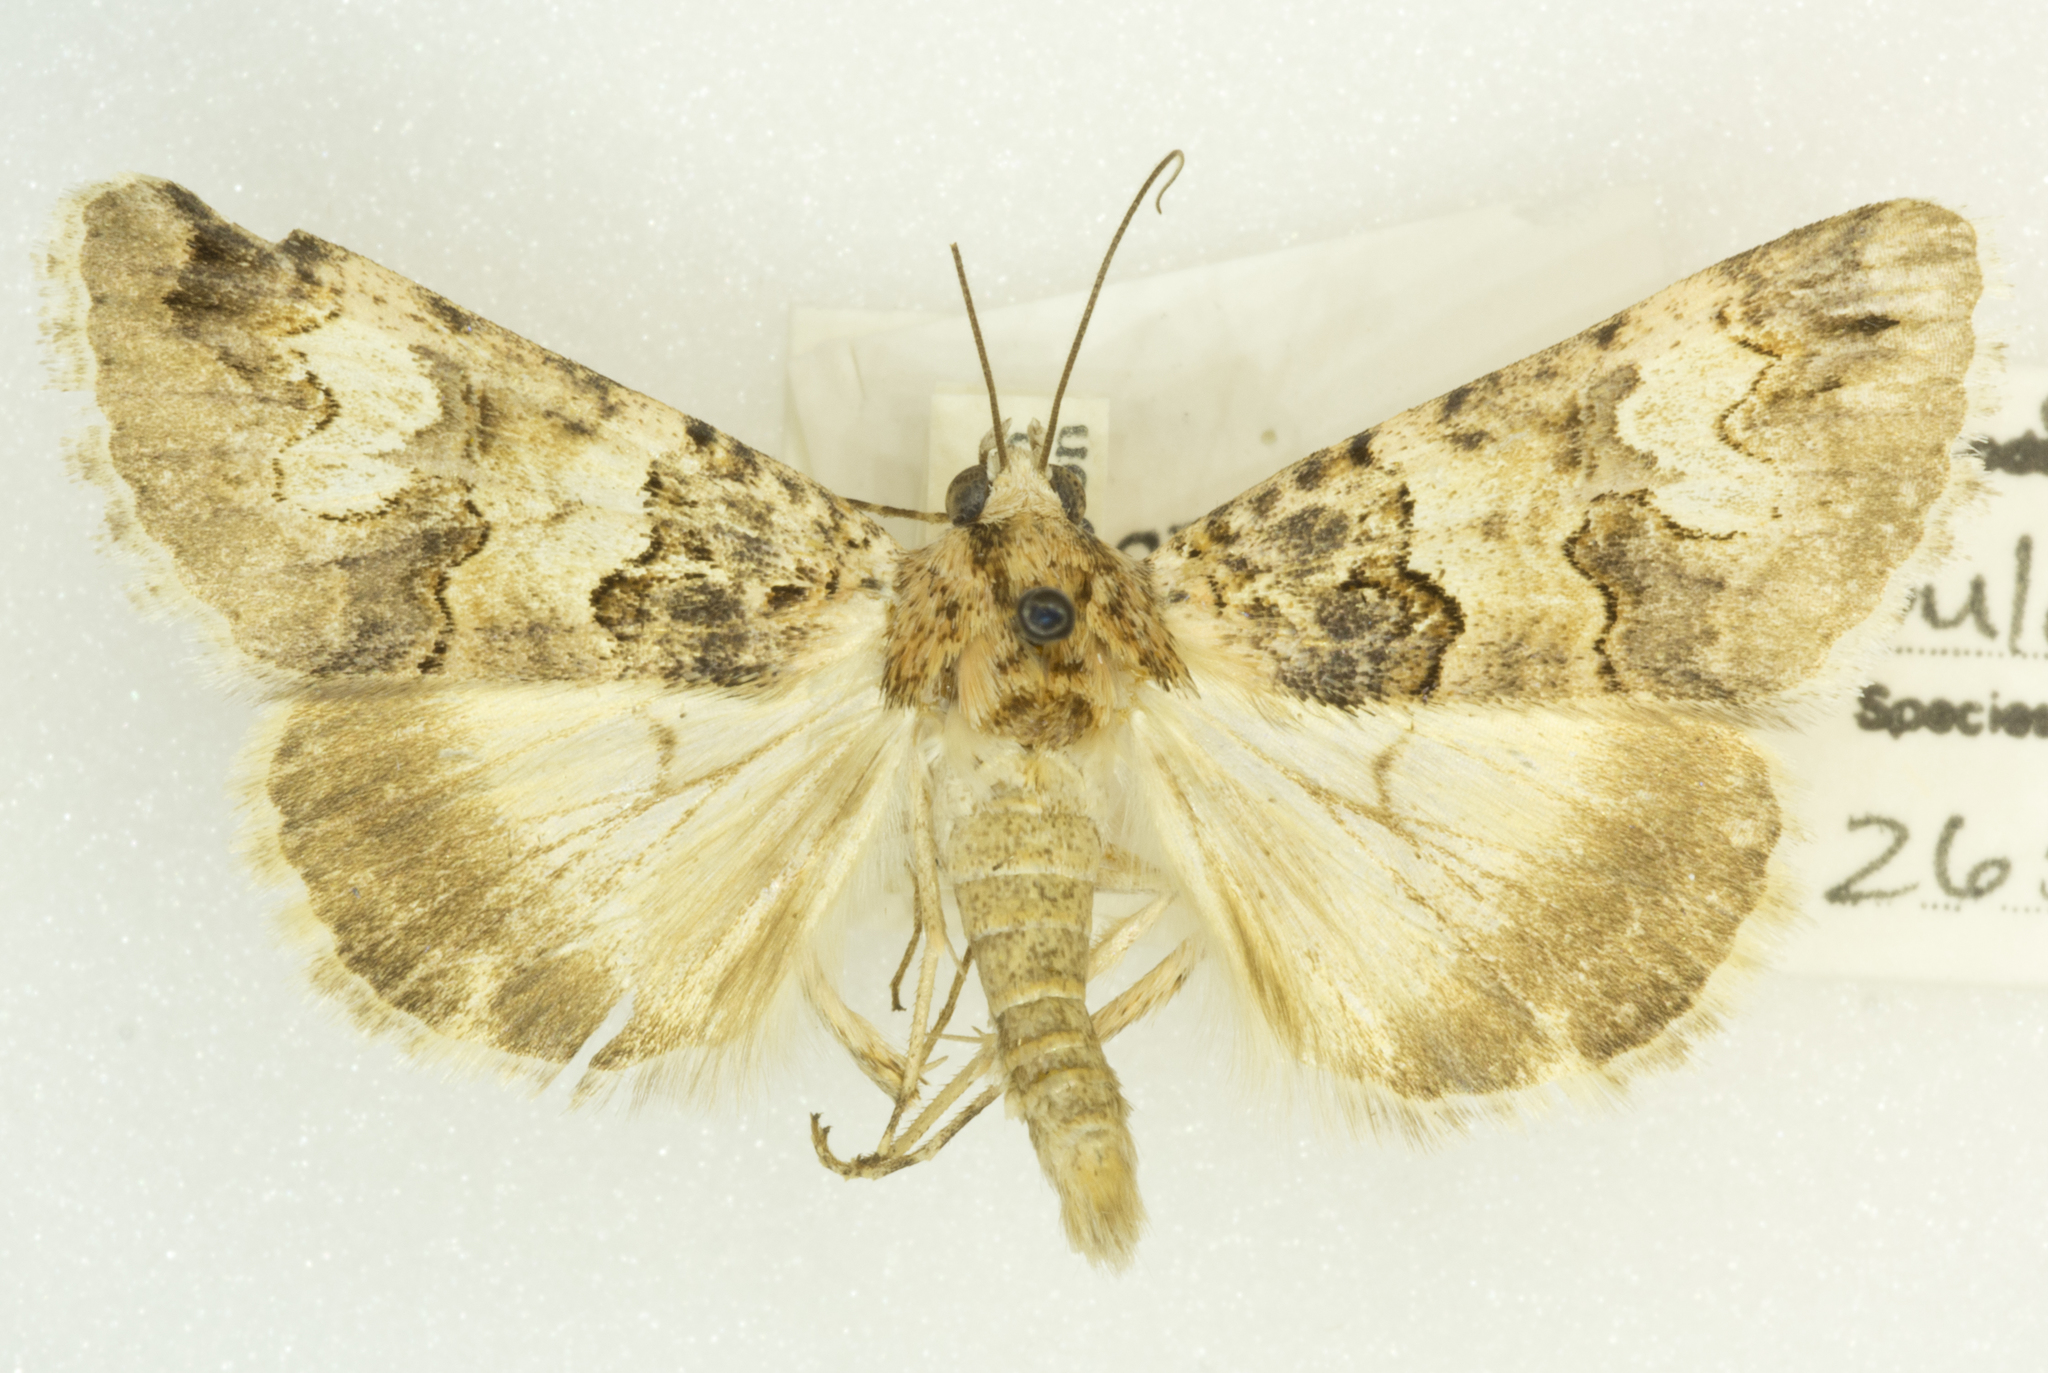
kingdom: Animalia
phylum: Arthropoda
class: Insecta
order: Lepidoptera
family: Erebidae
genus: Drasteria
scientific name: Drasteria sabulosa
